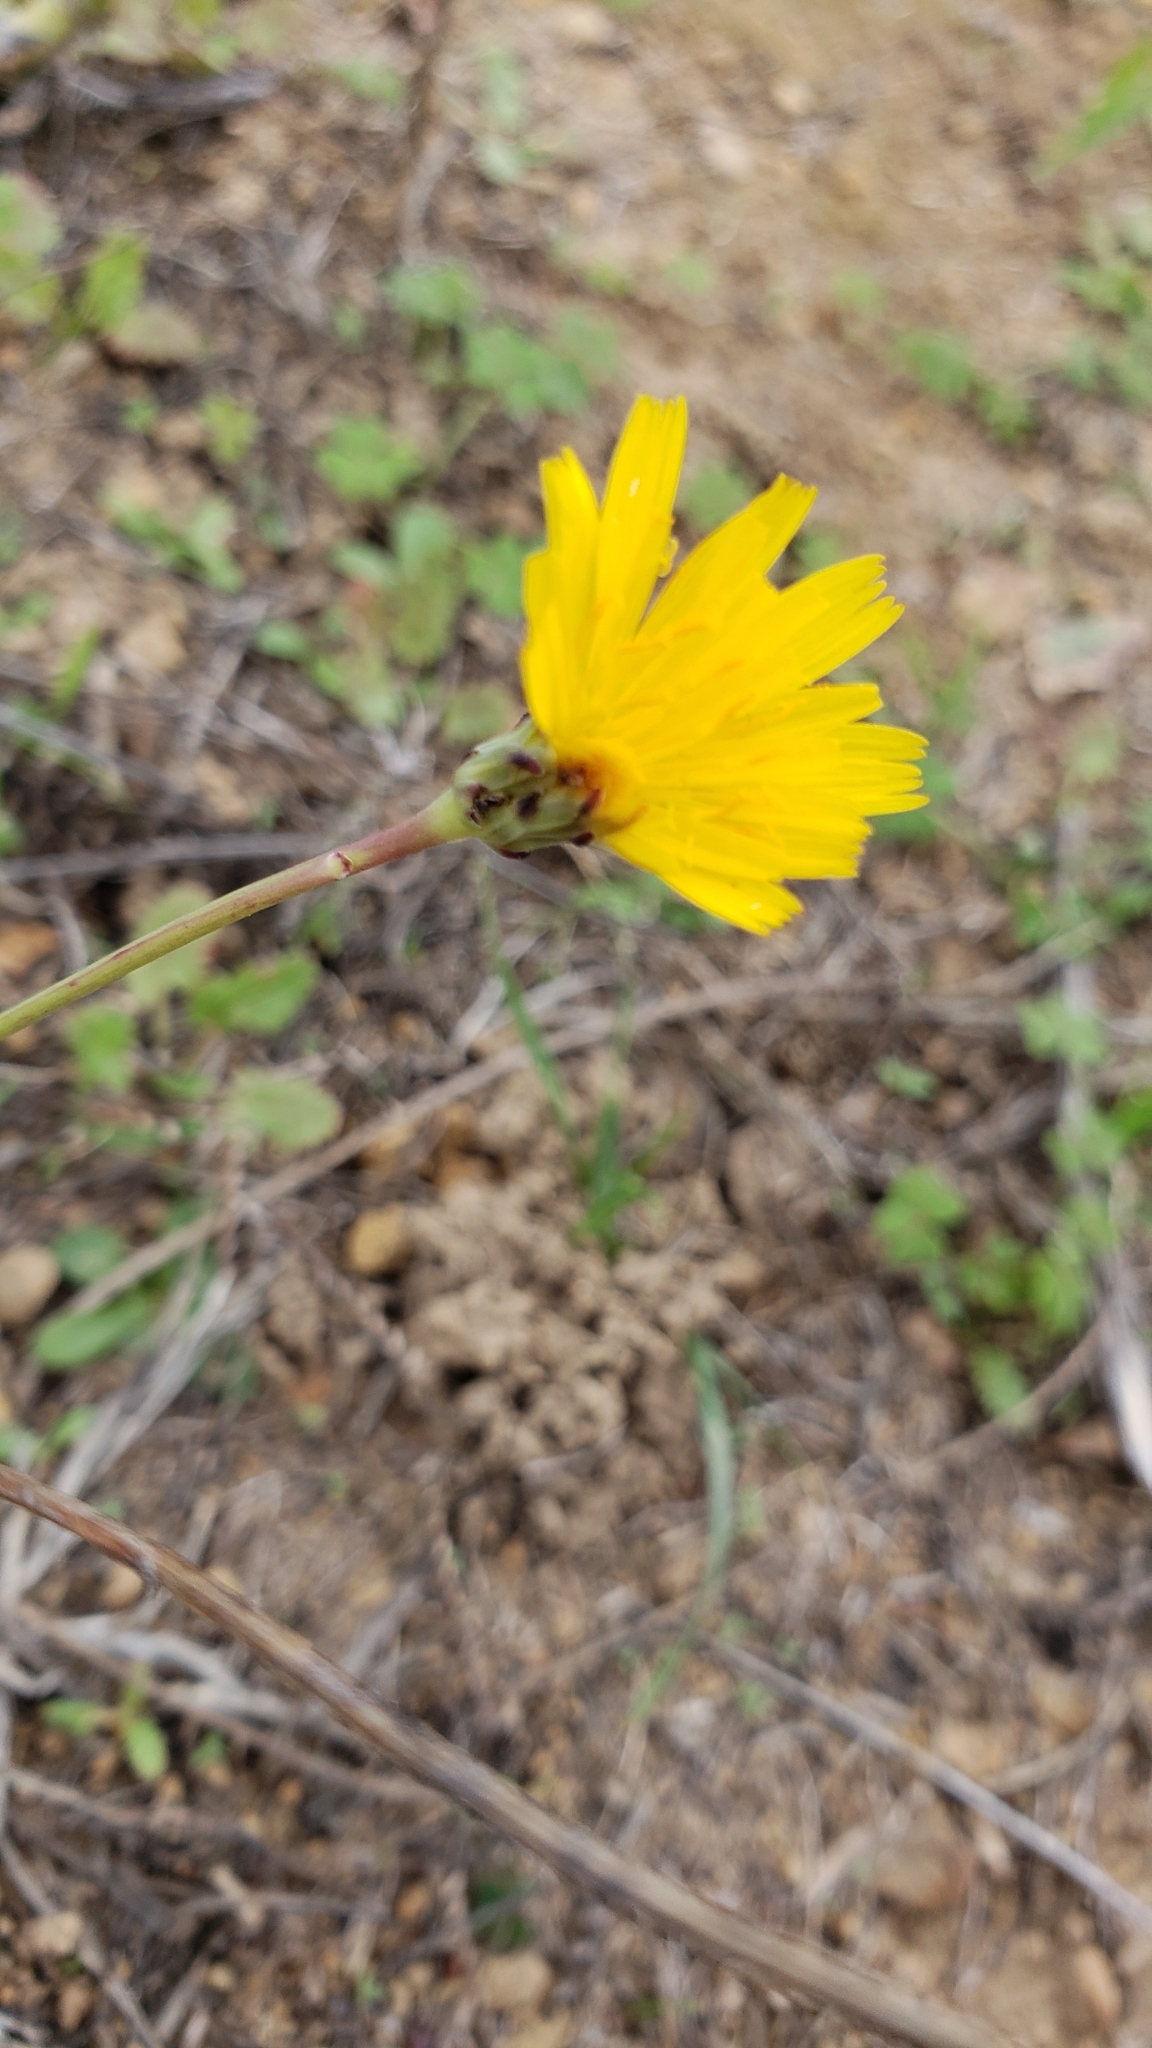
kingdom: Plantae
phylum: Tracheophyta
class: Magnoliopsida
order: Asterales
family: Asteraceae
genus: Hypochaeris
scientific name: Hypochaeris radicata
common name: Flatweed
